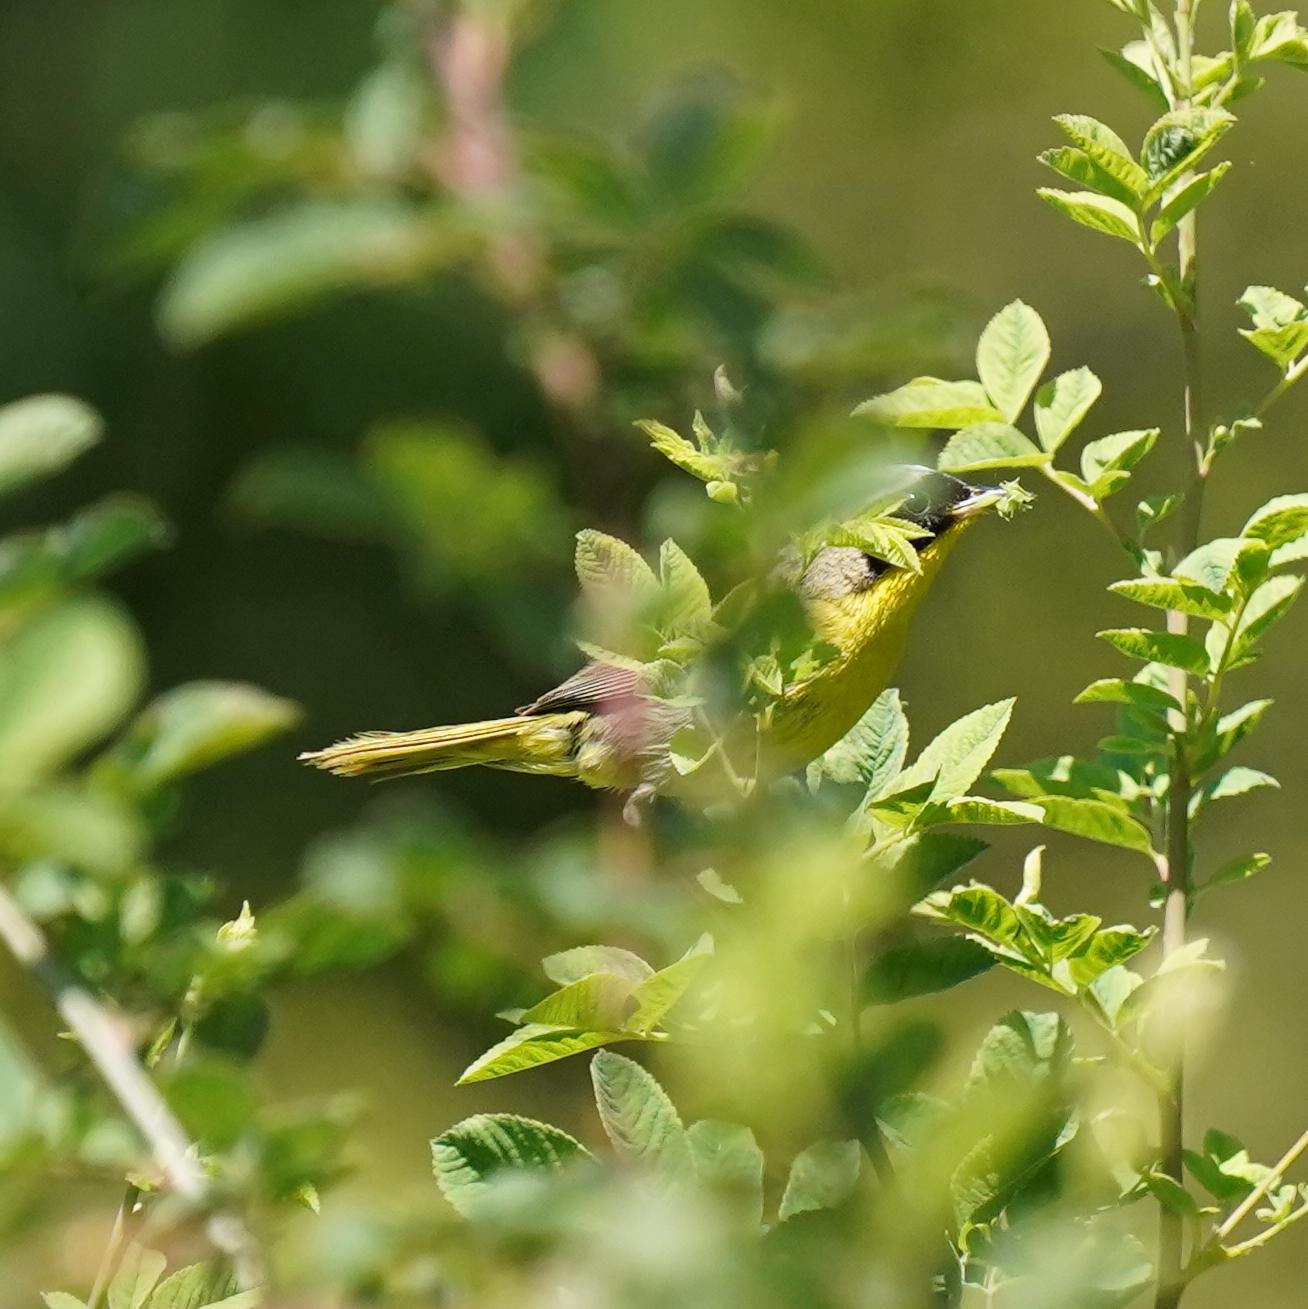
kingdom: Animalia
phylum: Chordata
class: Aves
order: Passeriformes
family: Parulidae
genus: Geothlypis
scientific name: Geothlypis trichas
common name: Common yellowthroat
